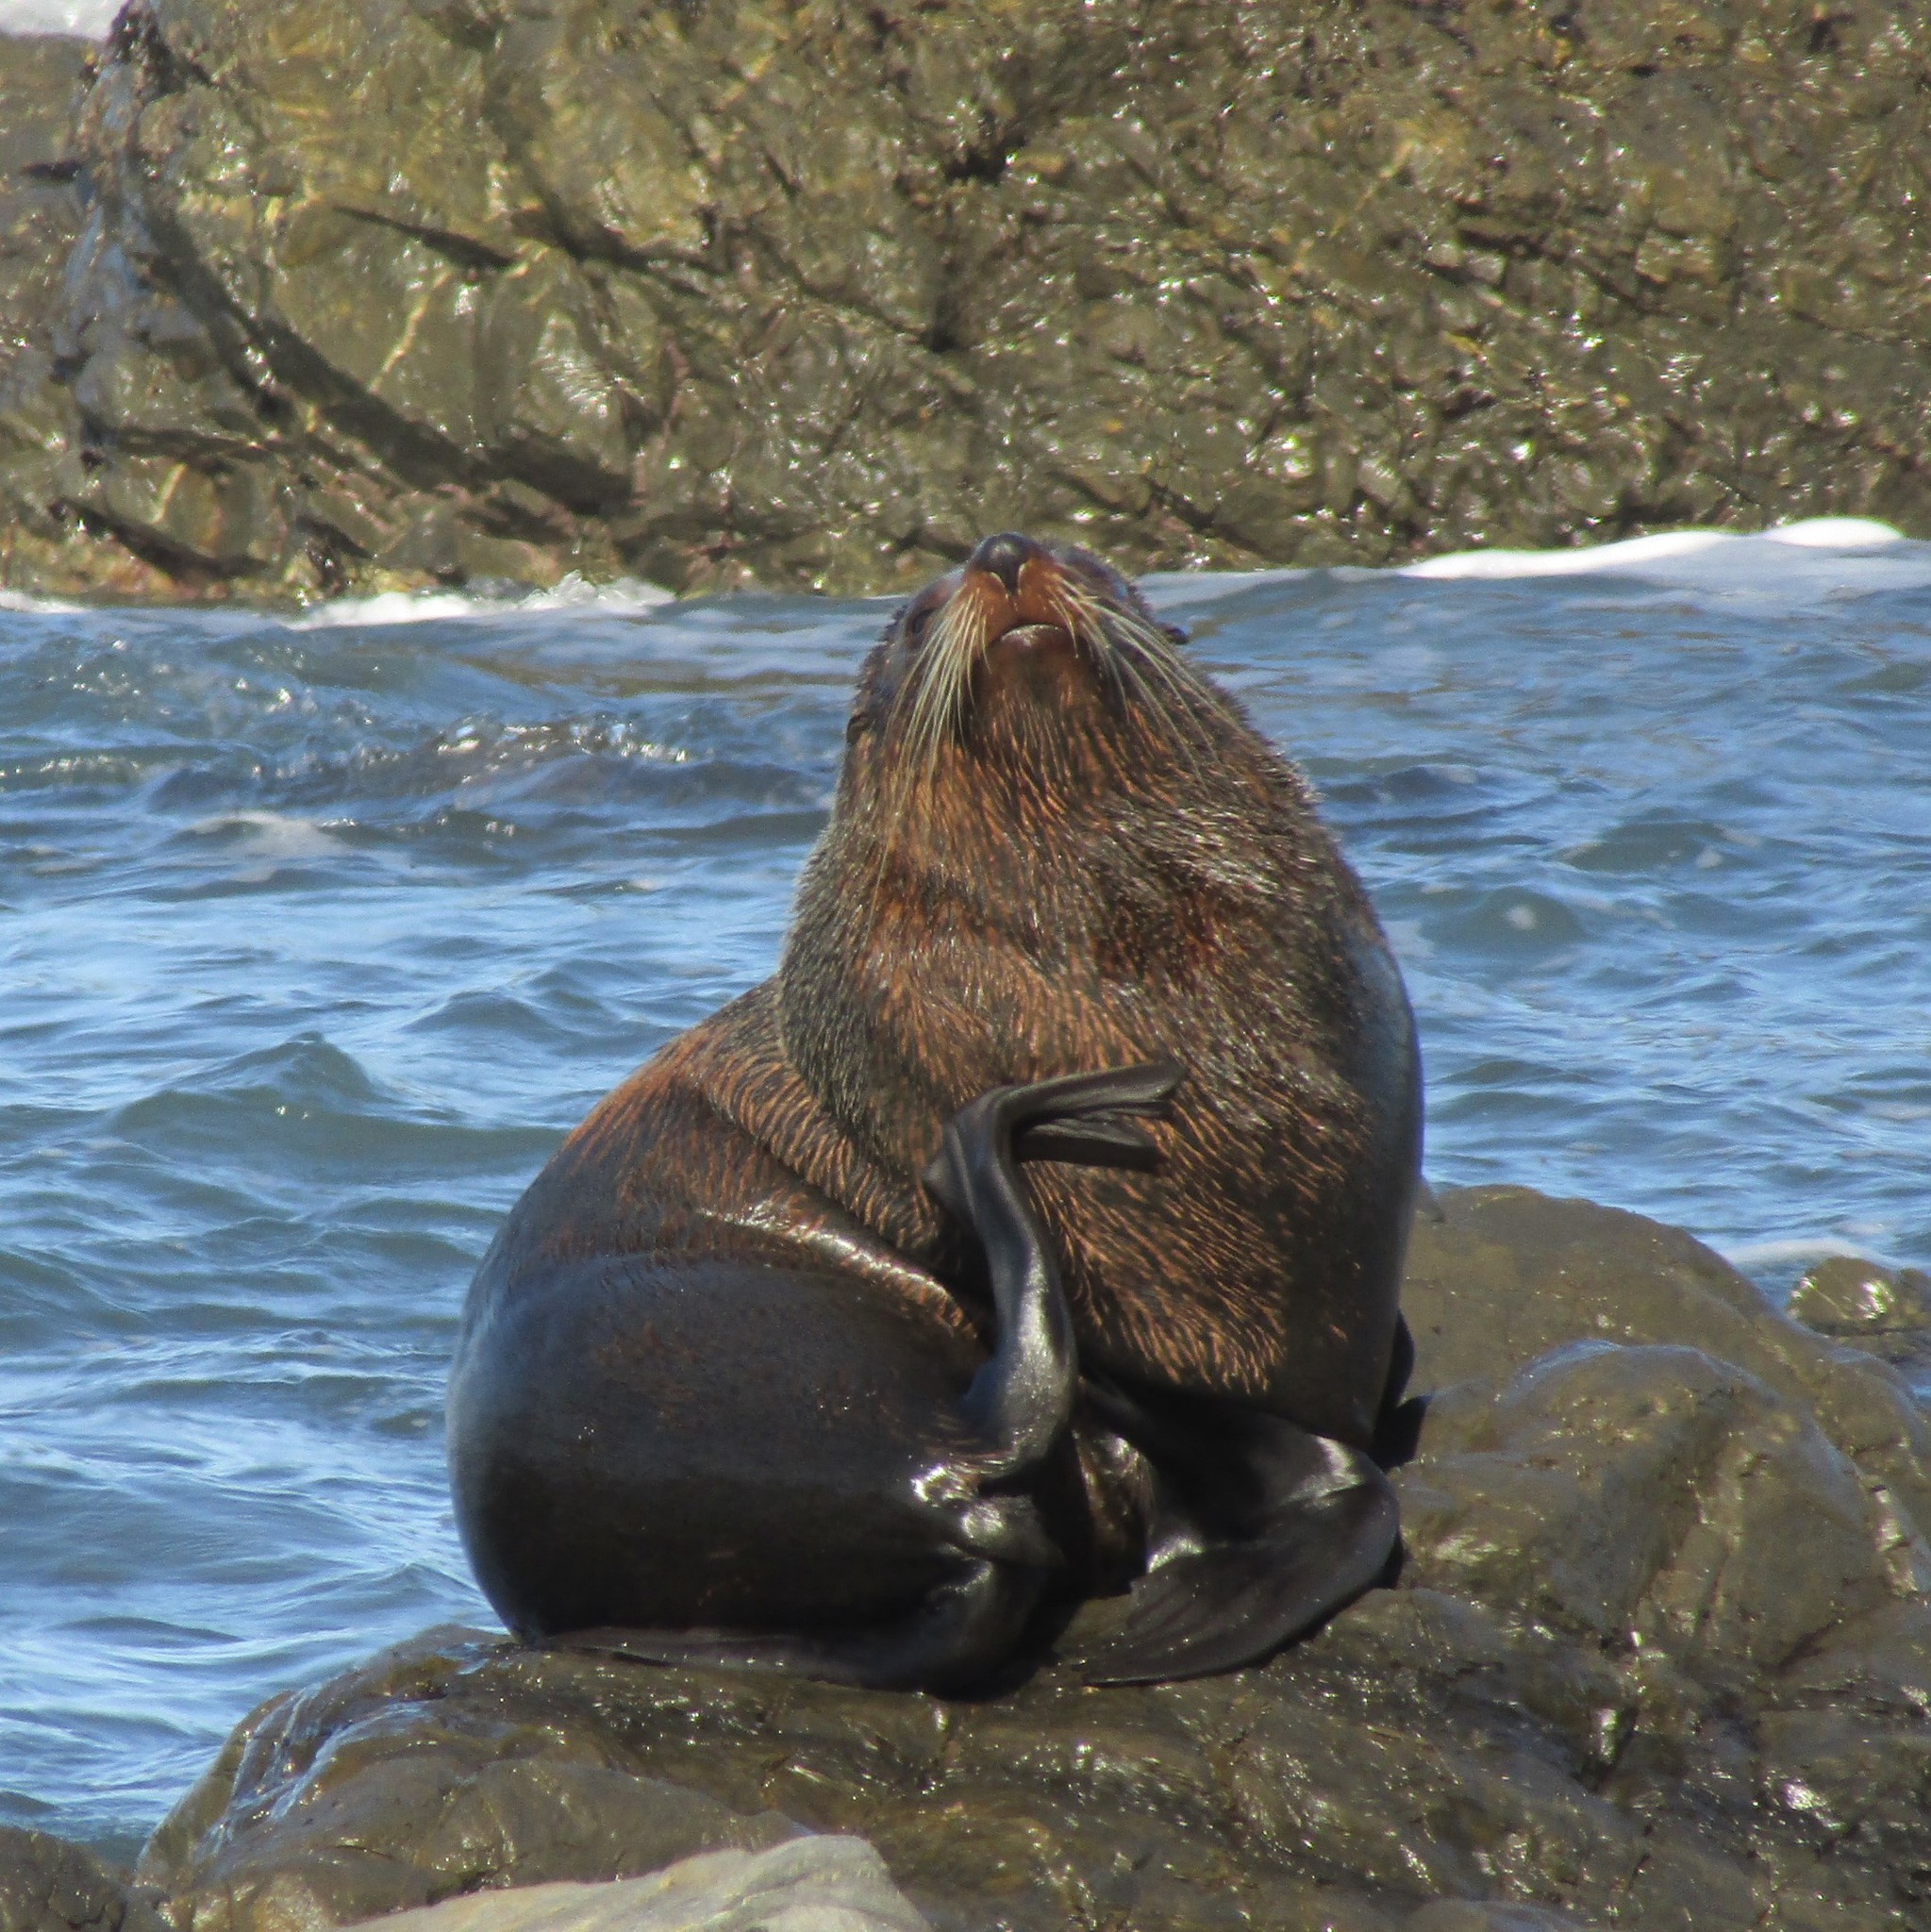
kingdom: Animalia
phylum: Chordata
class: Mammalia
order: Carnivora
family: Otariidae
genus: Arctocephalus
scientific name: Arctocephalus forsteri
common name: New zealand fur seal
